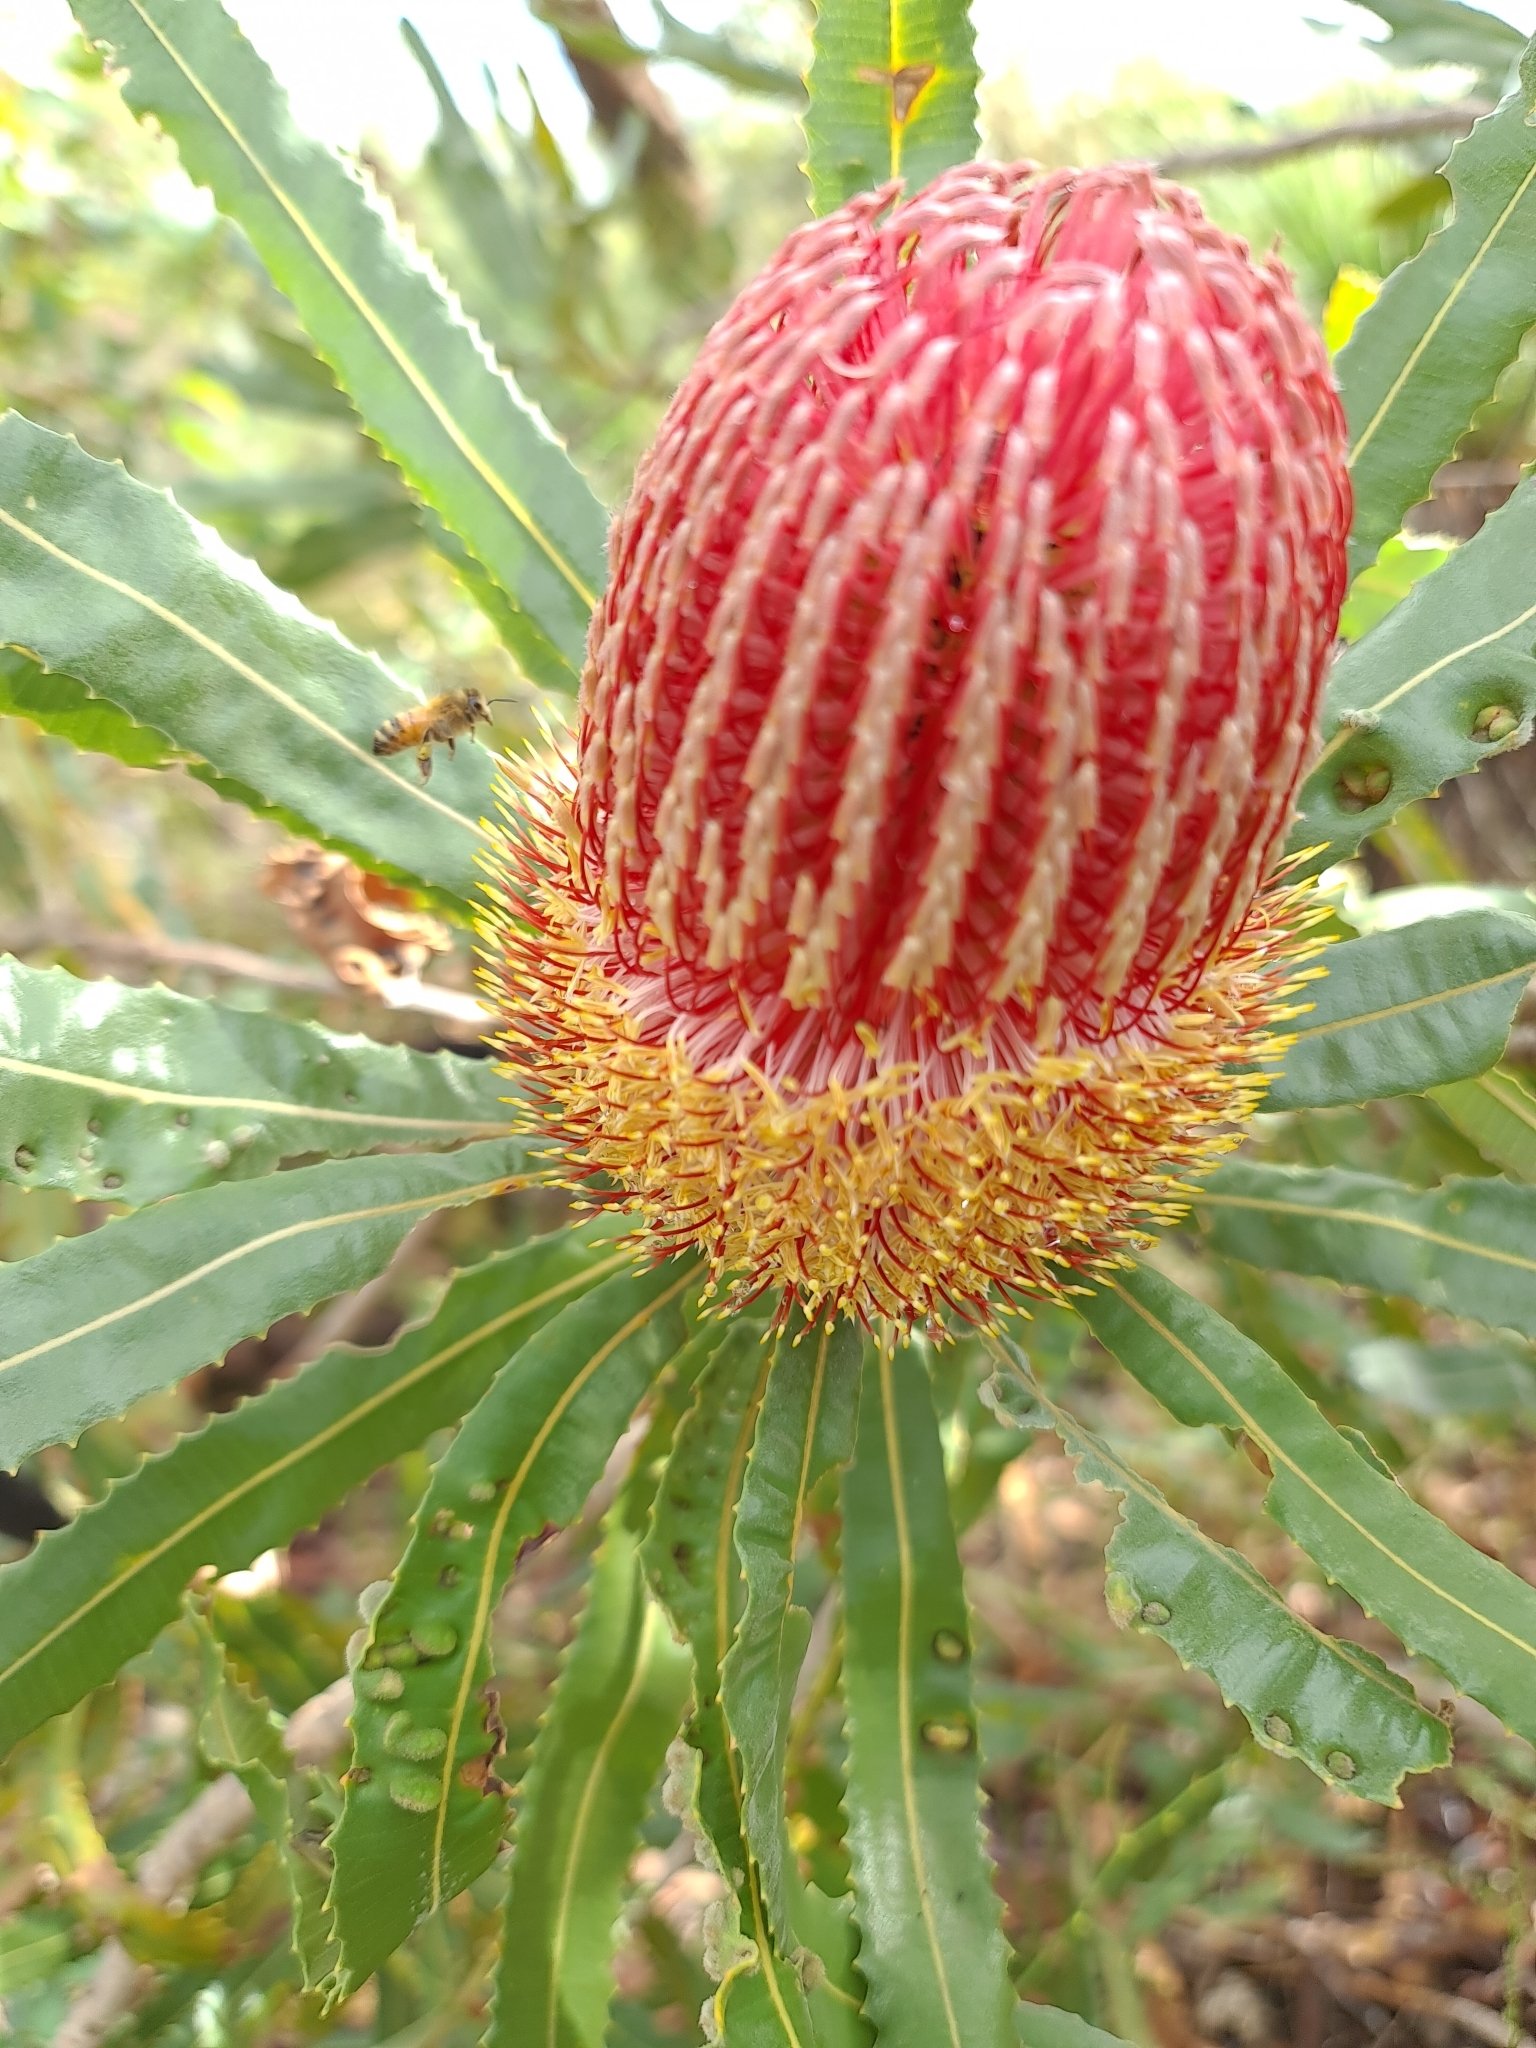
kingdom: Plantae
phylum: Tracheophyta
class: Magnoliopsida
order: Proteales
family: Proteaceae
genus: Banksia
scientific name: Banksia menziesii
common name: Menzie's banksia
